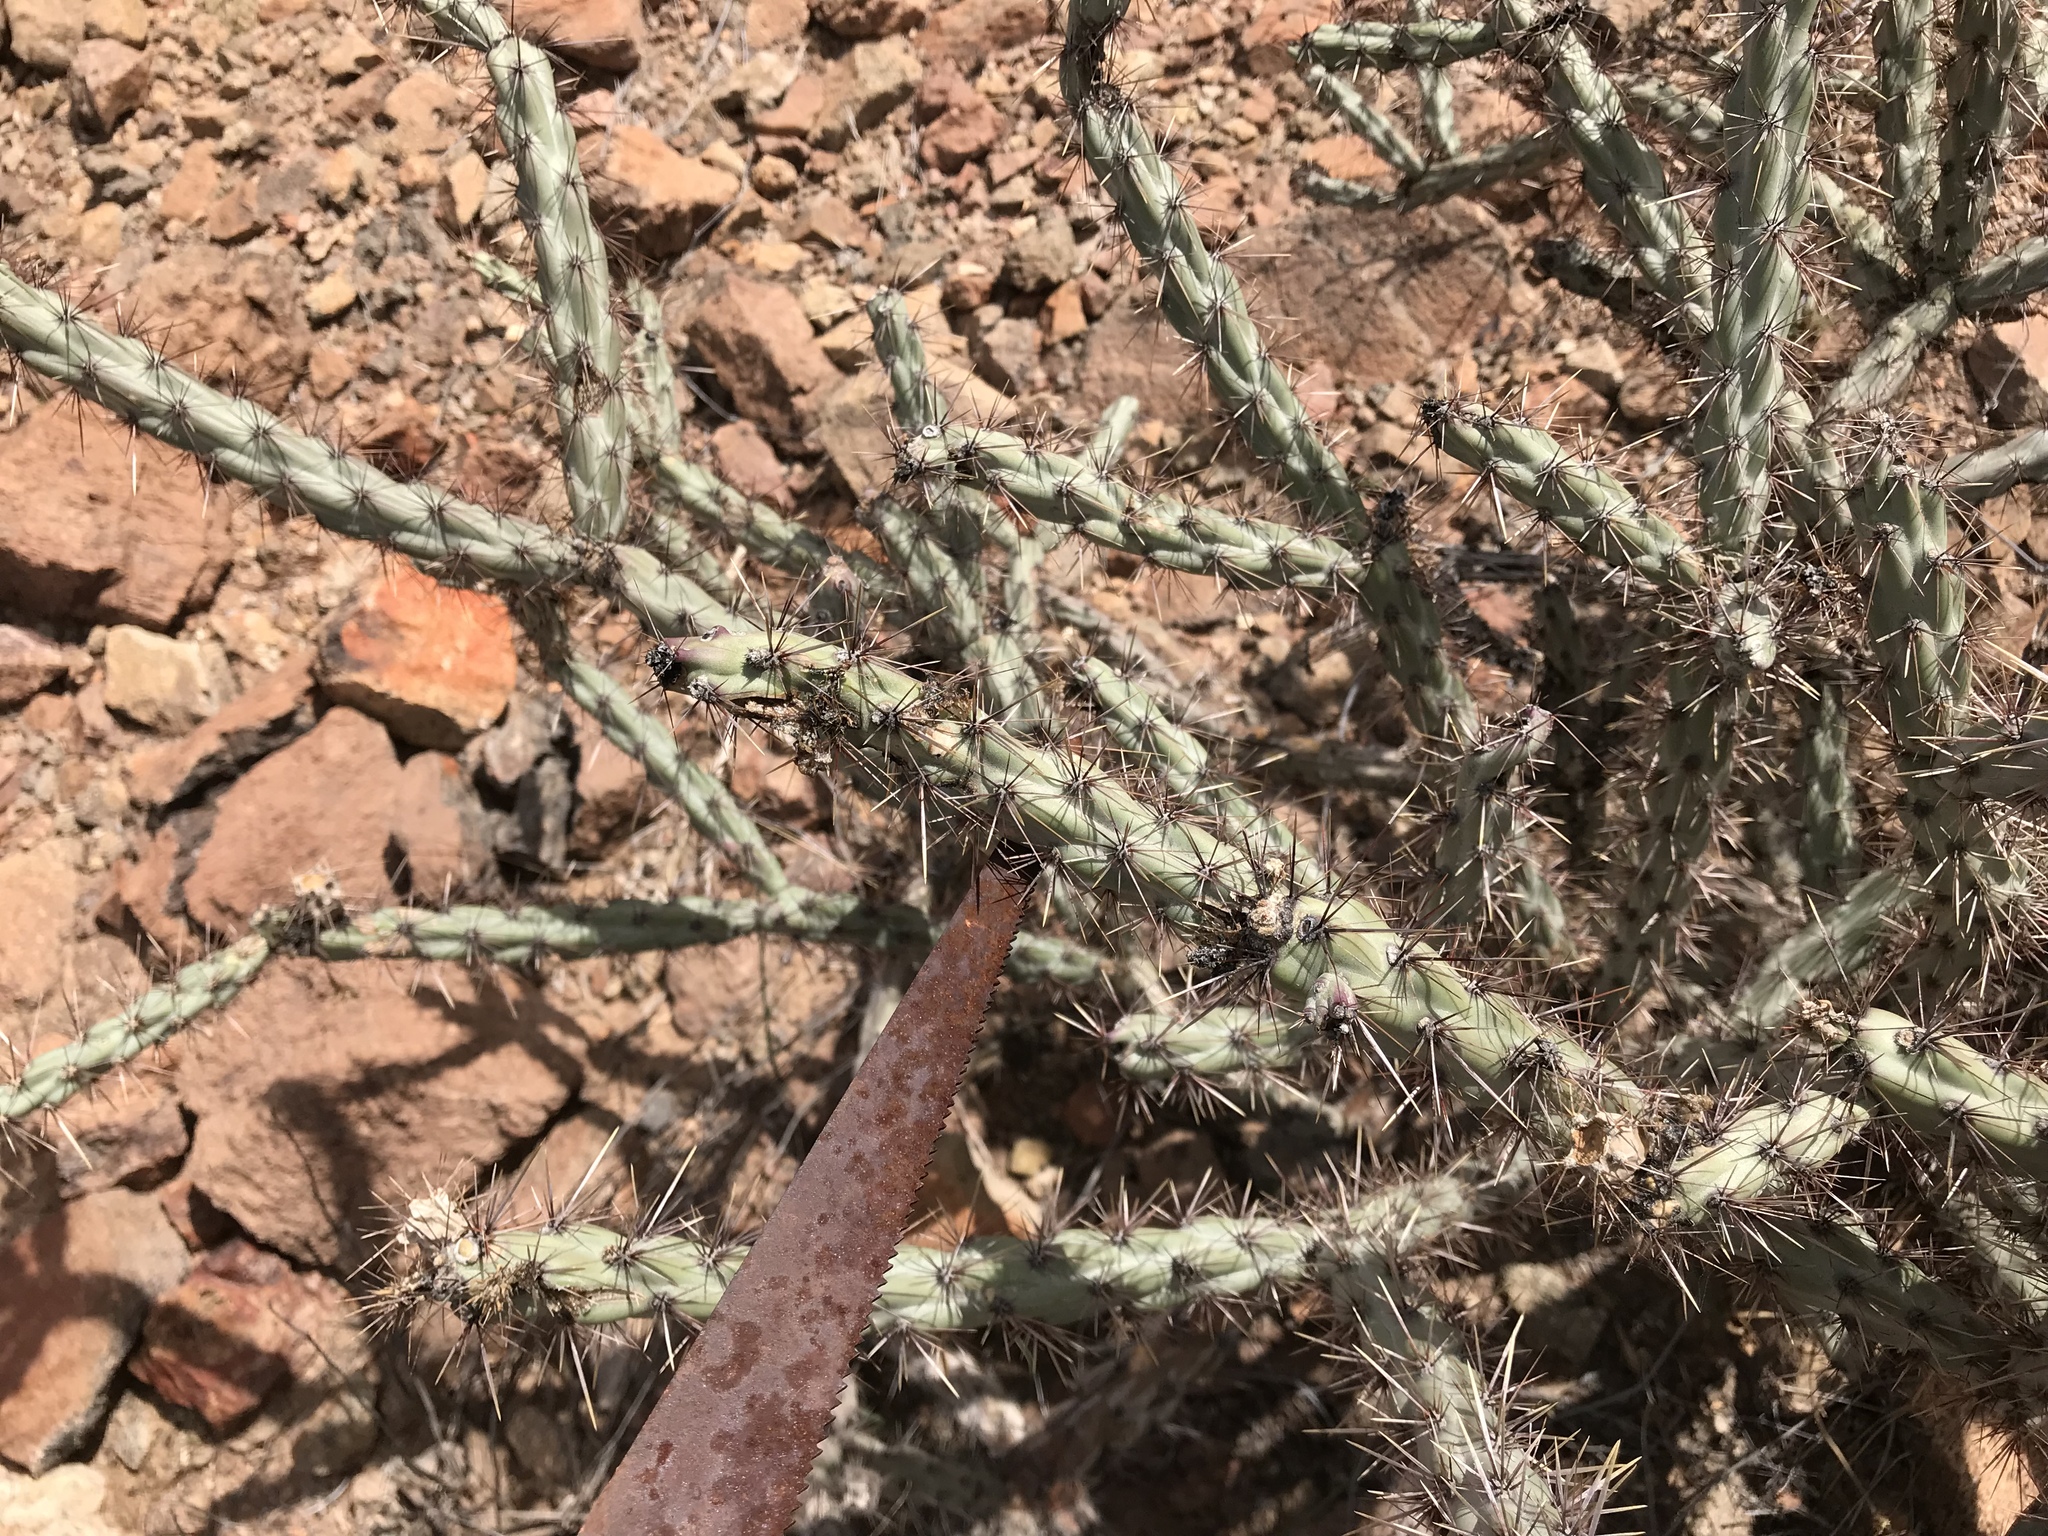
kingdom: Plantae
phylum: Tracheophyta
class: Magnoliopsida
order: Caryophyllales
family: Cactaceae
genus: Cylindropuntia
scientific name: Cylindropuntia thurberi
